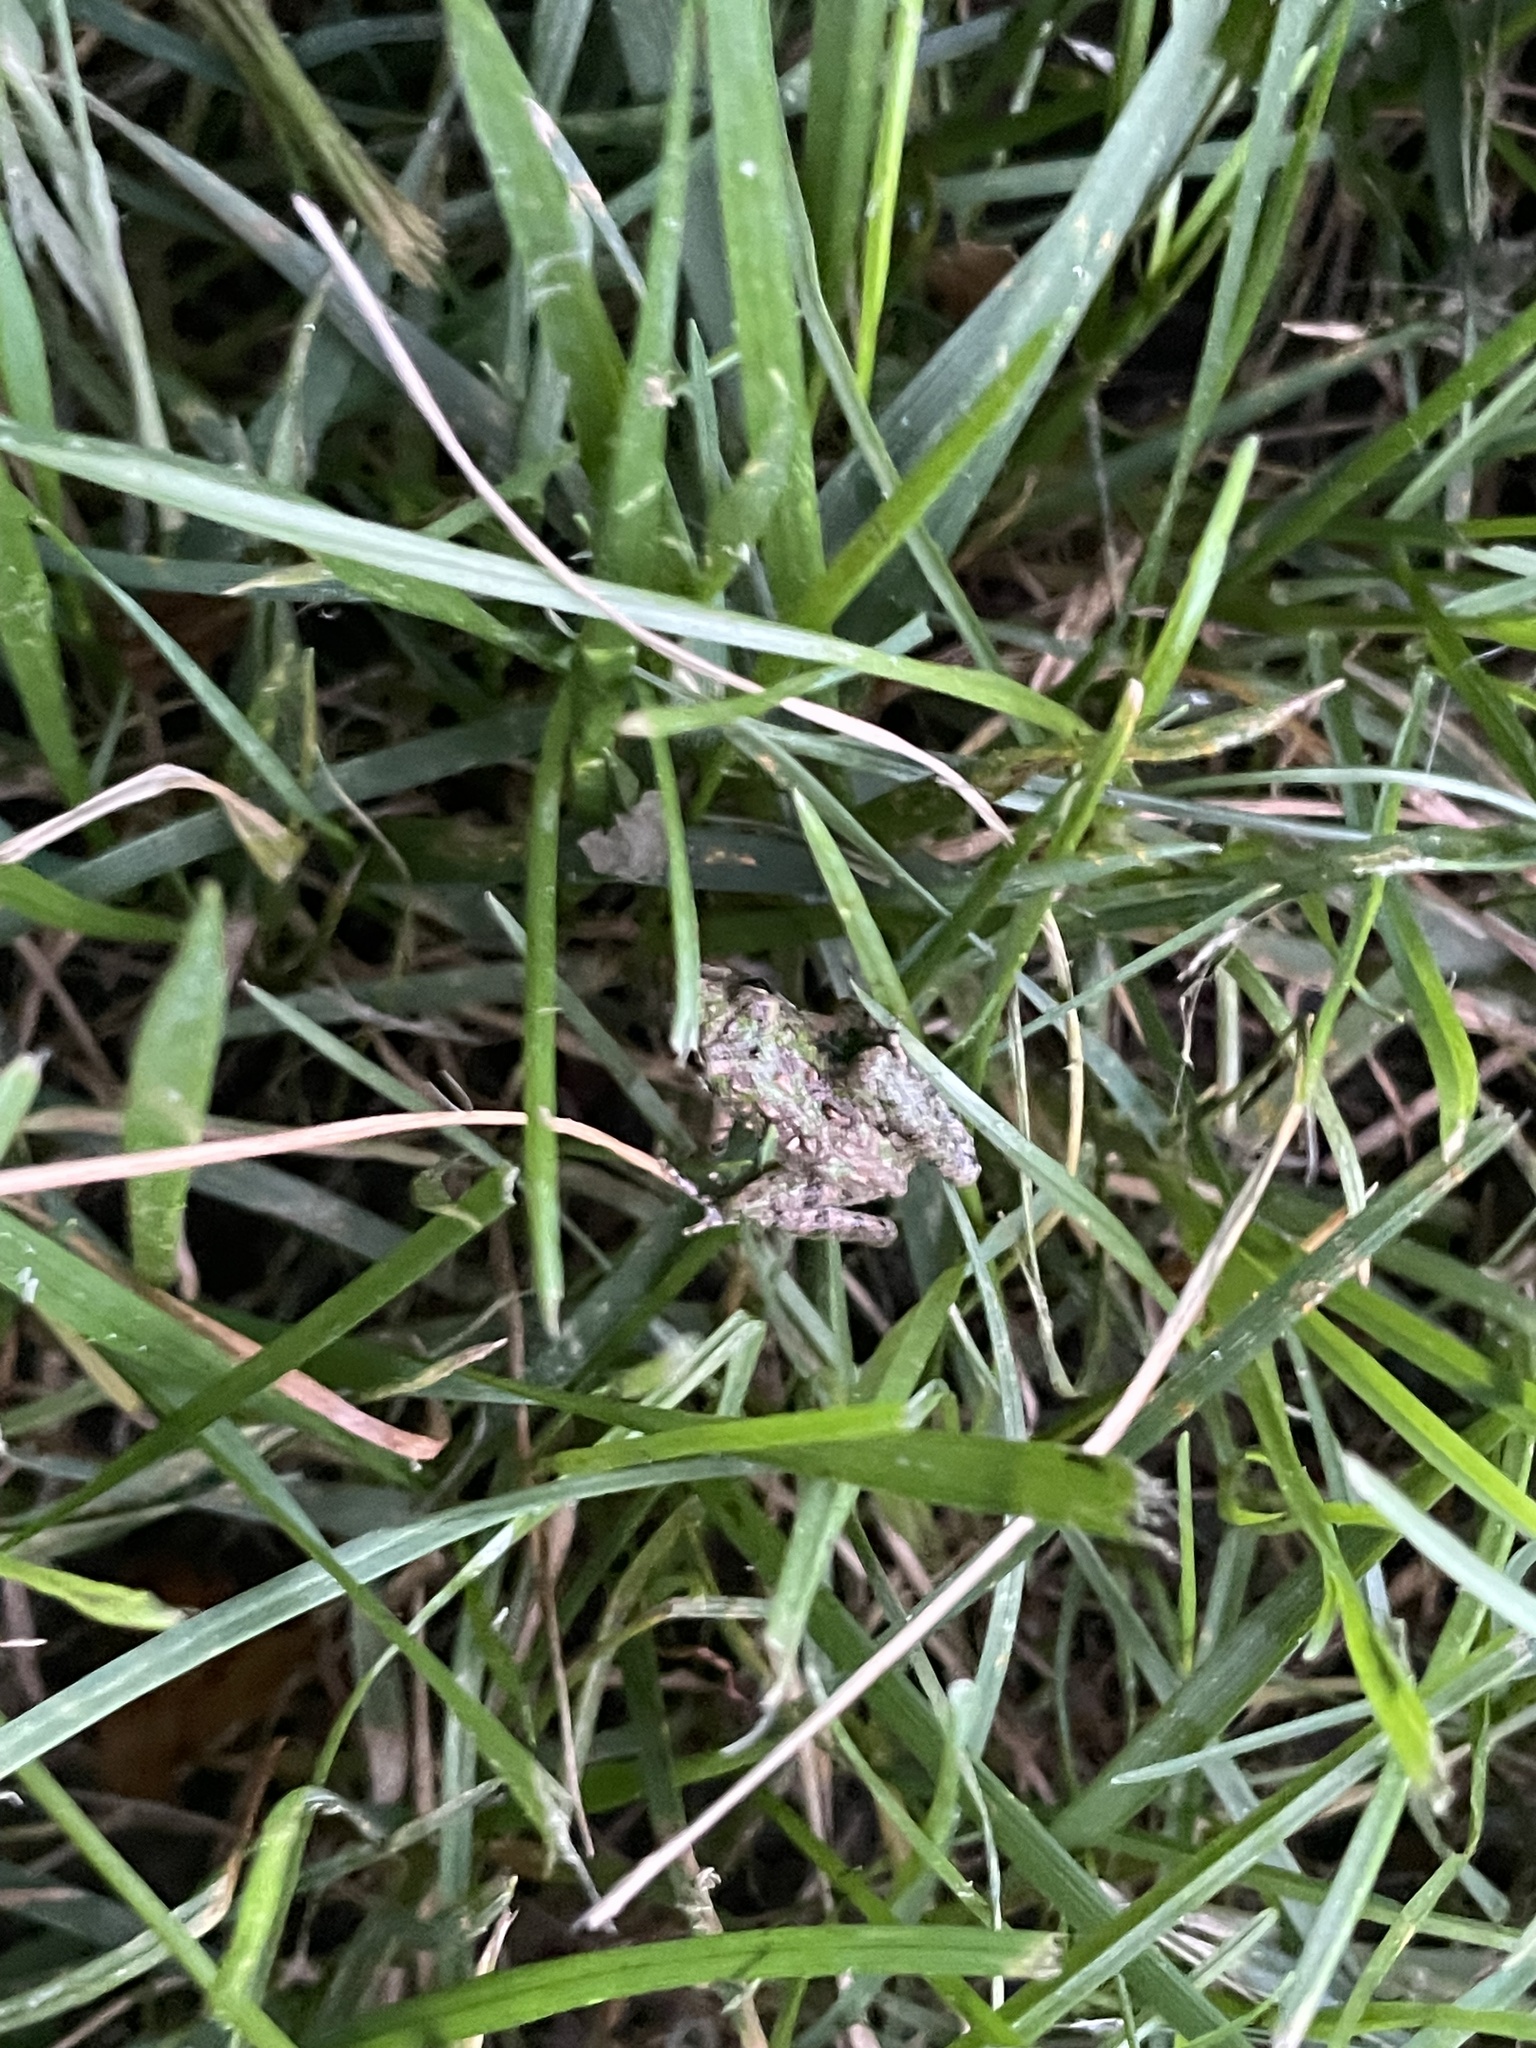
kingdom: Animalia
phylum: Chordata
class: Amphibia
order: Anura
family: Hylidae
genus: Acris
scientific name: Acris crepitans
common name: Northern cricket frog
